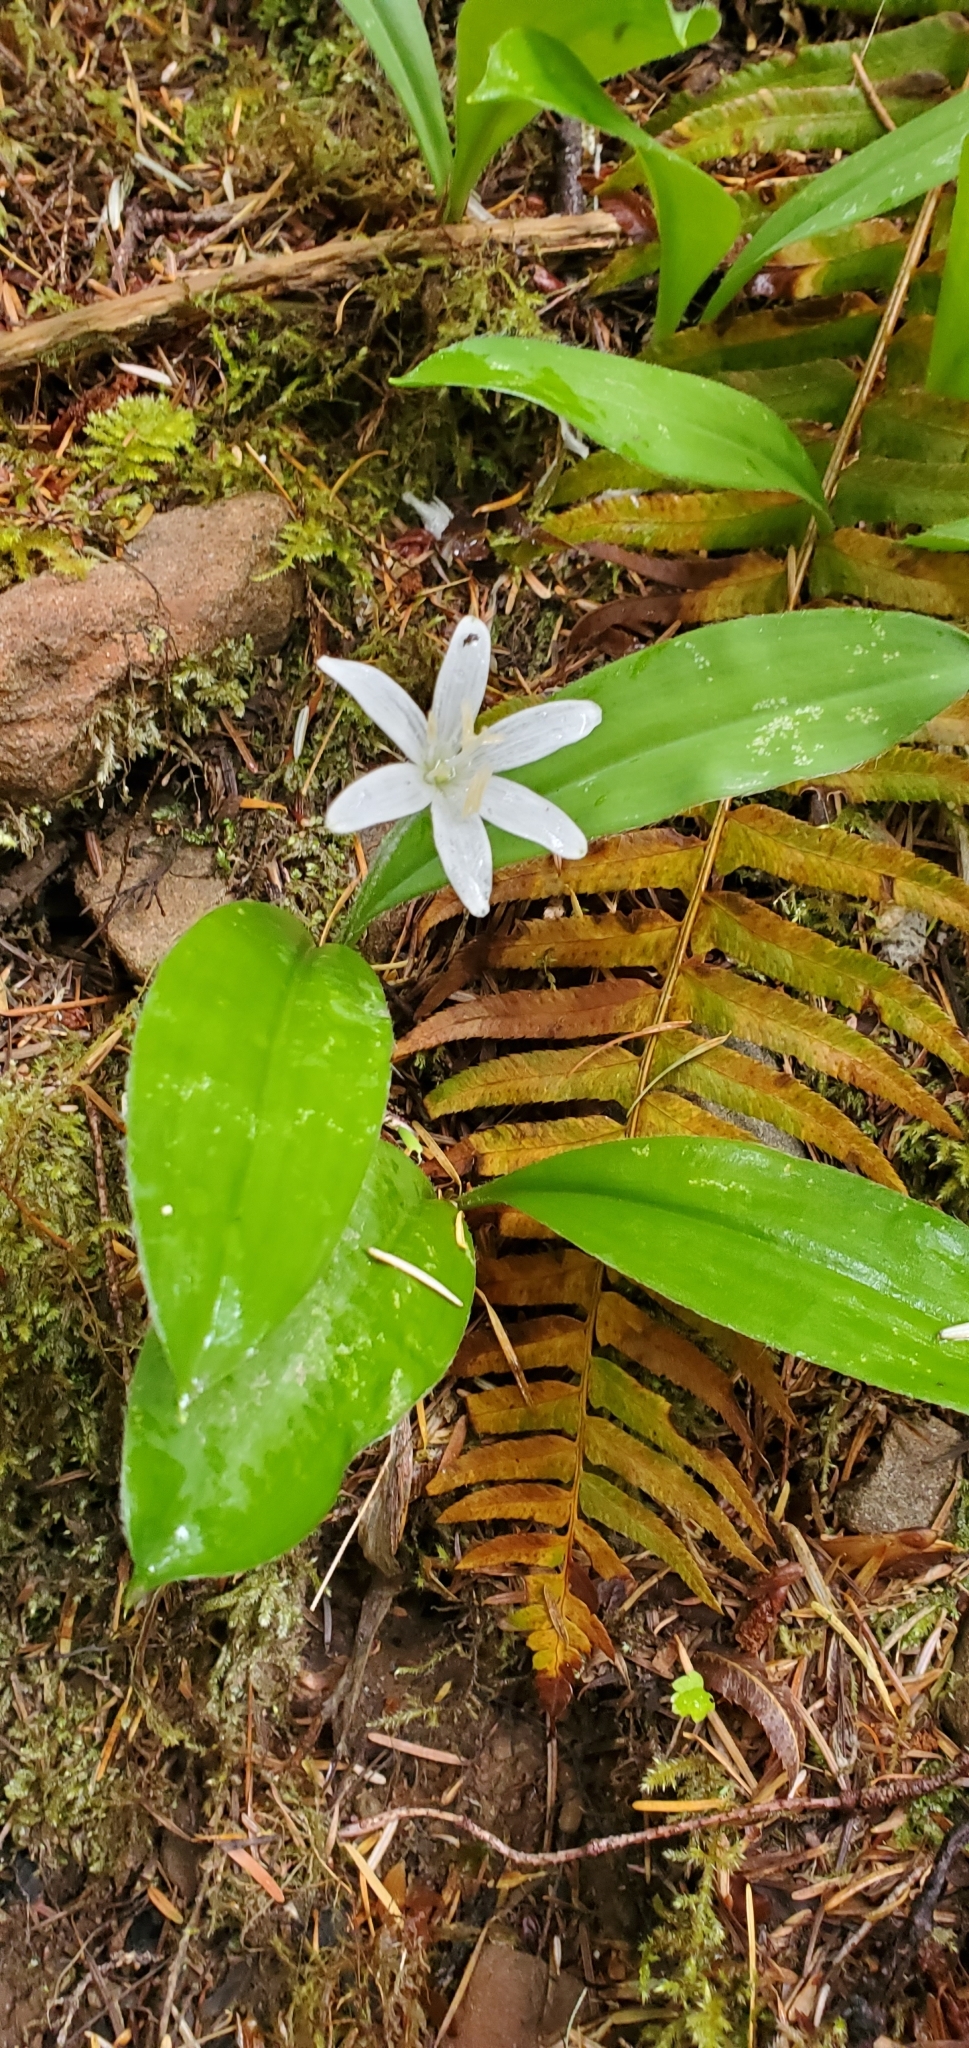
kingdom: Plantae
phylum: Tracheophyta
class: Liliopsida
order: Liliales
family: Liliaceae
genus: Clintonia
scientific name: Clintonia uniflora
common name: Queen's cup
